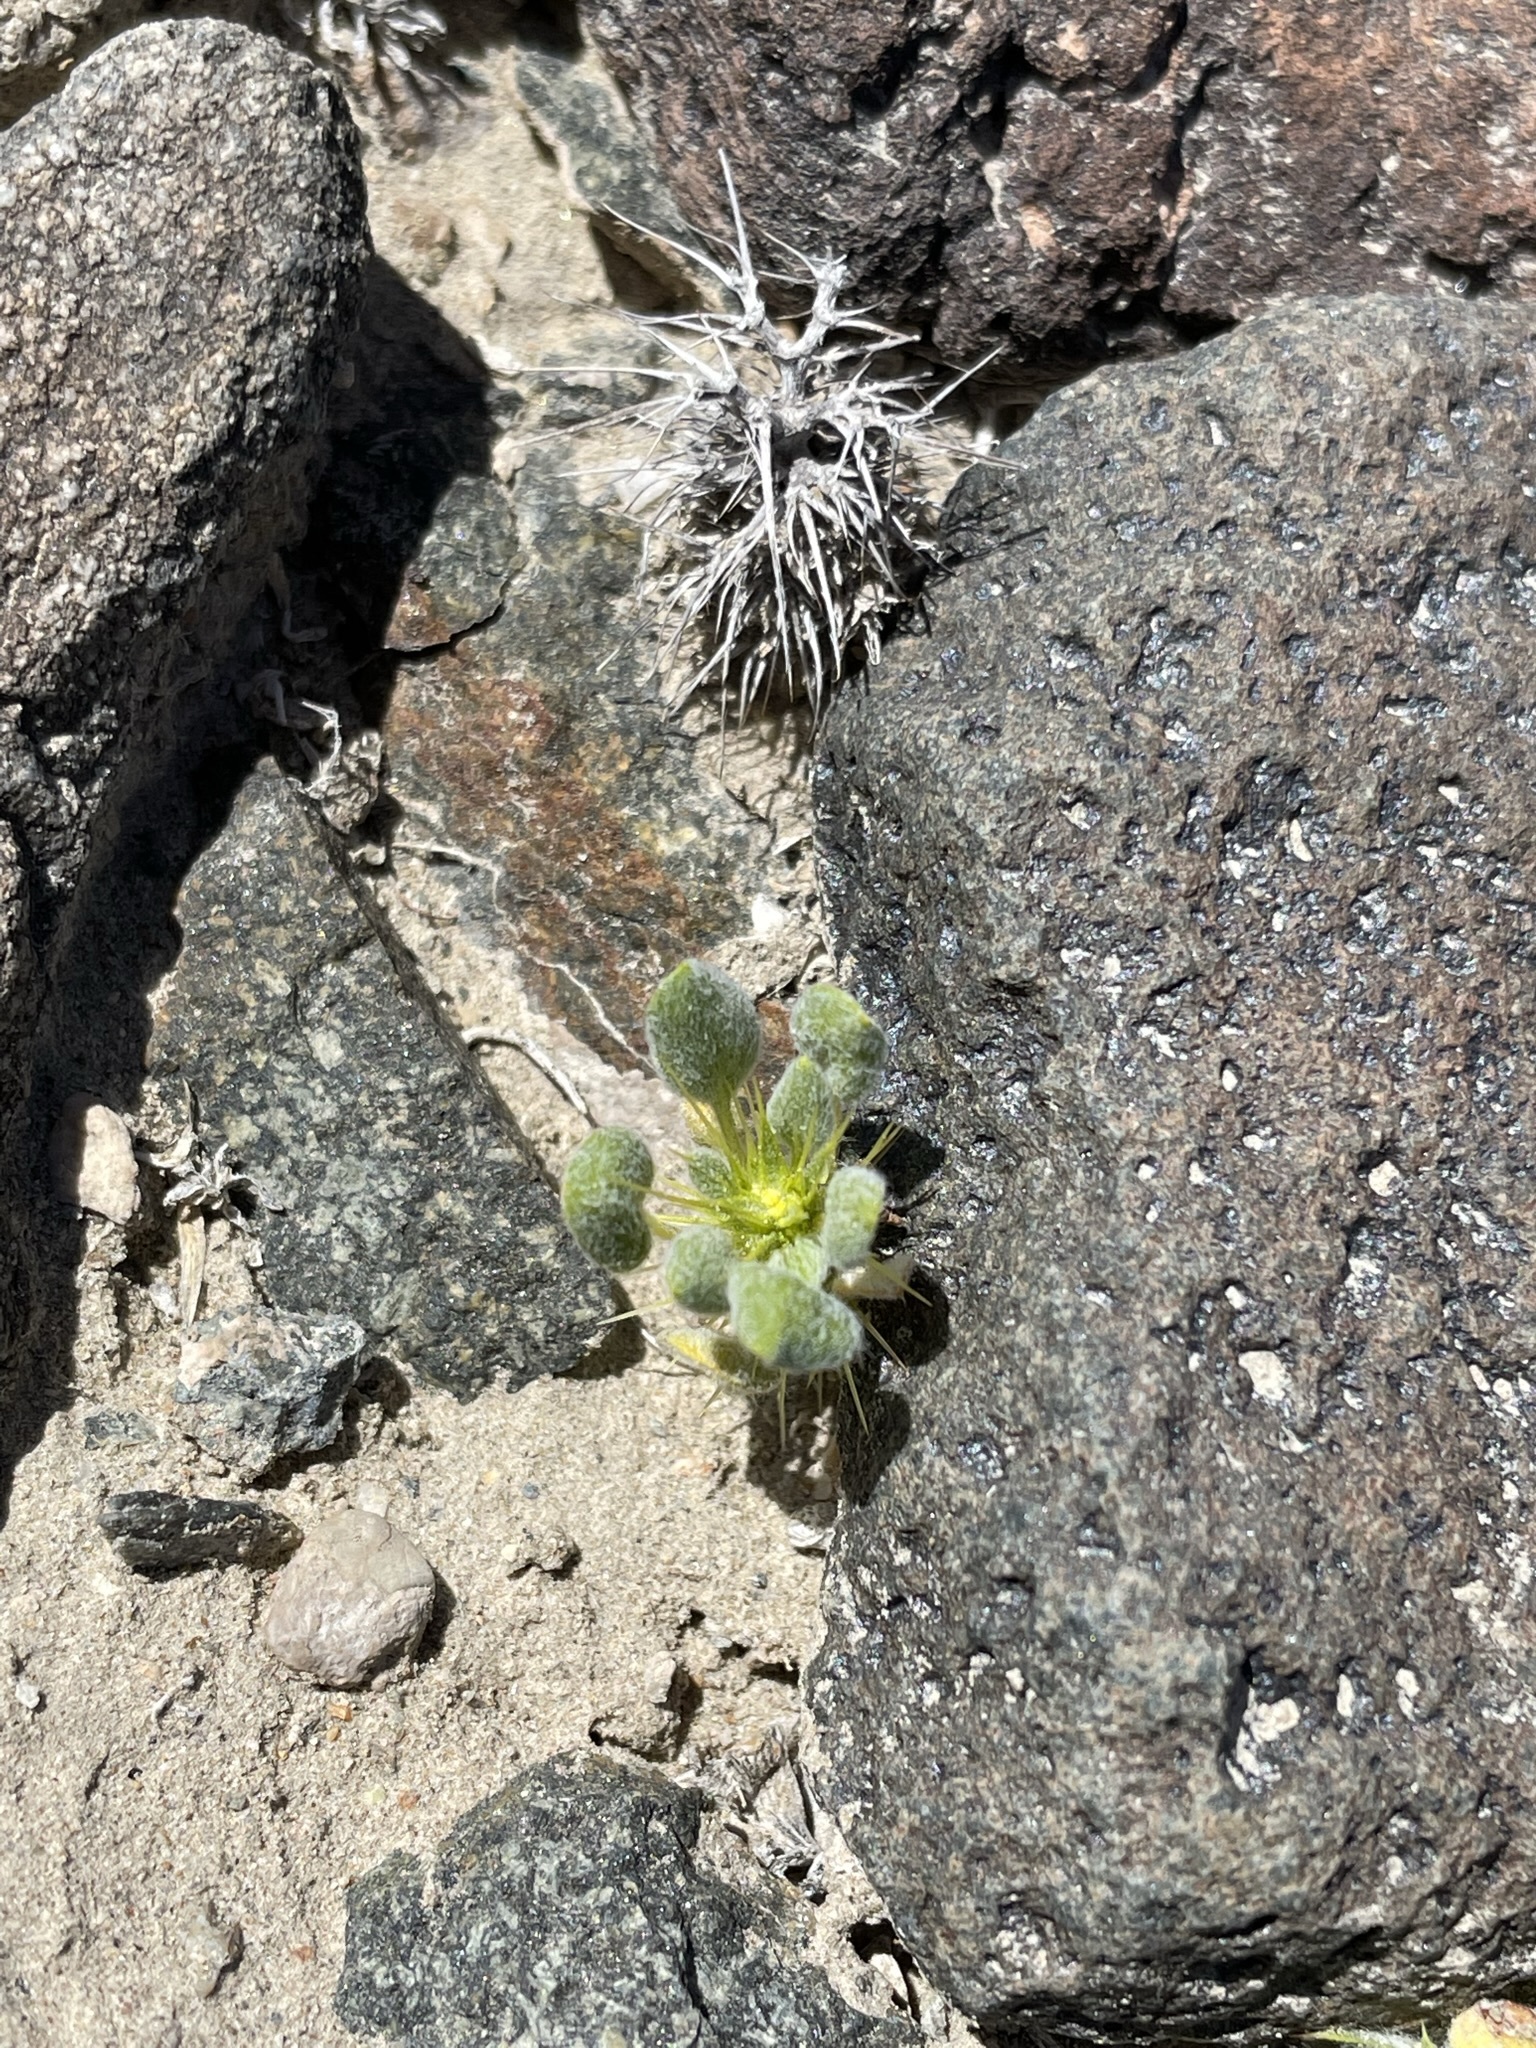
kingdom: Plantae
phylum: Tracheophyta
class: Magnoliopsida
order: Caryophyllales
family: Polygonaceae
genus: Chorizanthe
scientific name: Chorizanthe rigida
